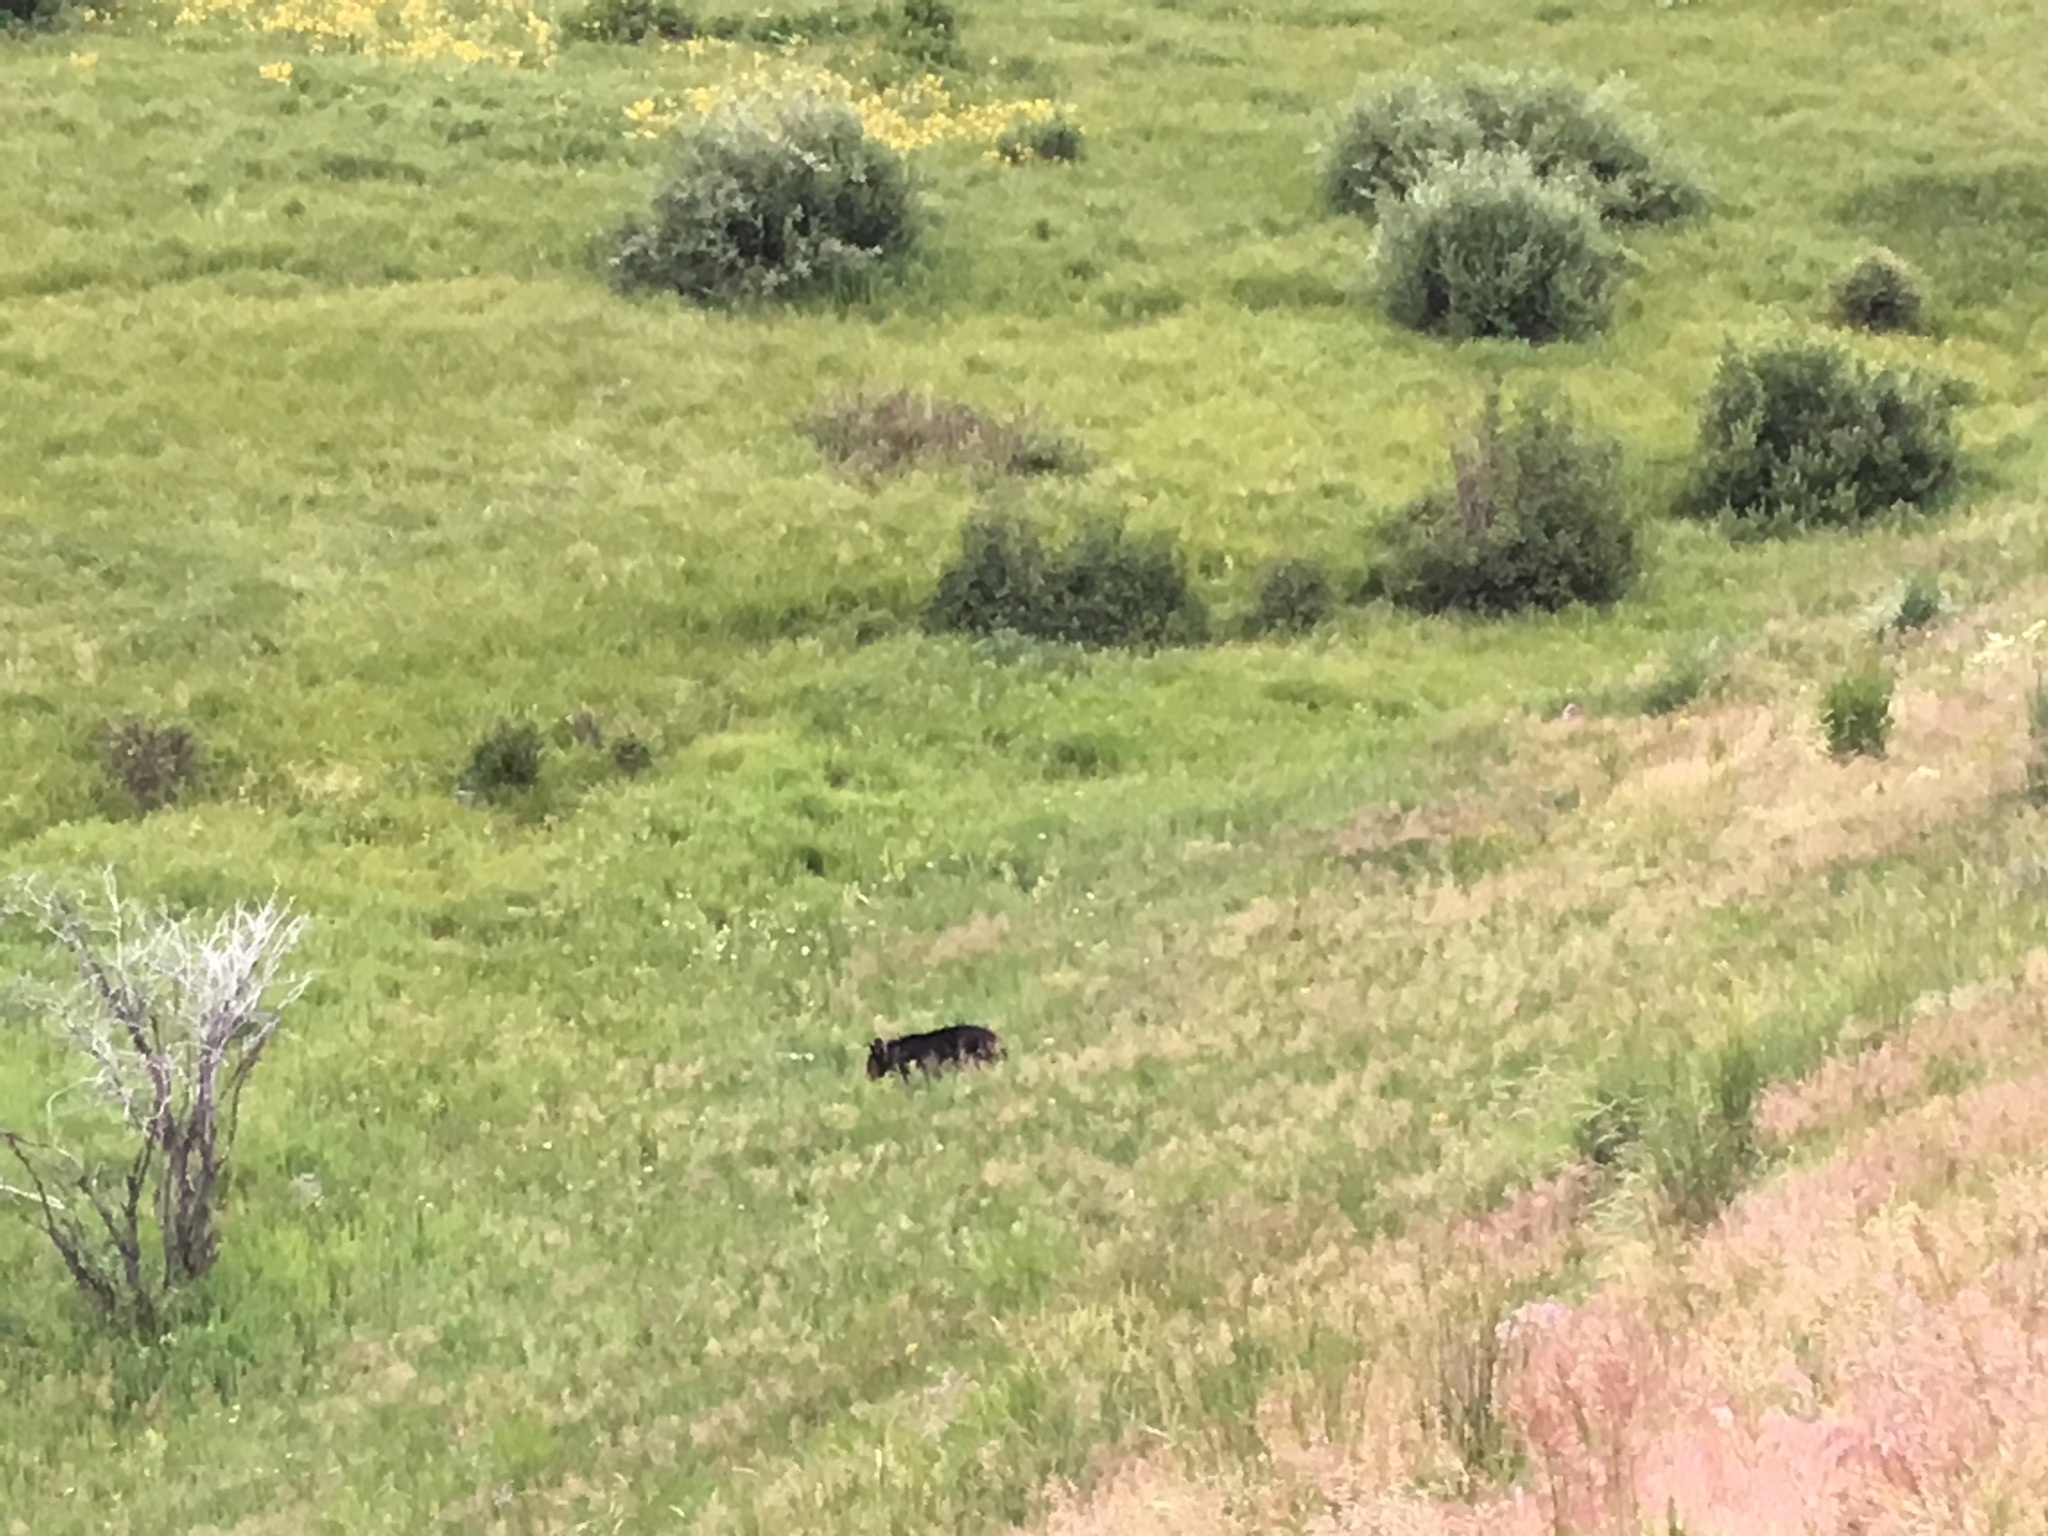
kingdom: Animalia
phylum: Chordata
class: Mammalia
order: Carnivora
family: Ursidae
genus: Ursus
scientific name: Ursus americanus
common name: American black bear
